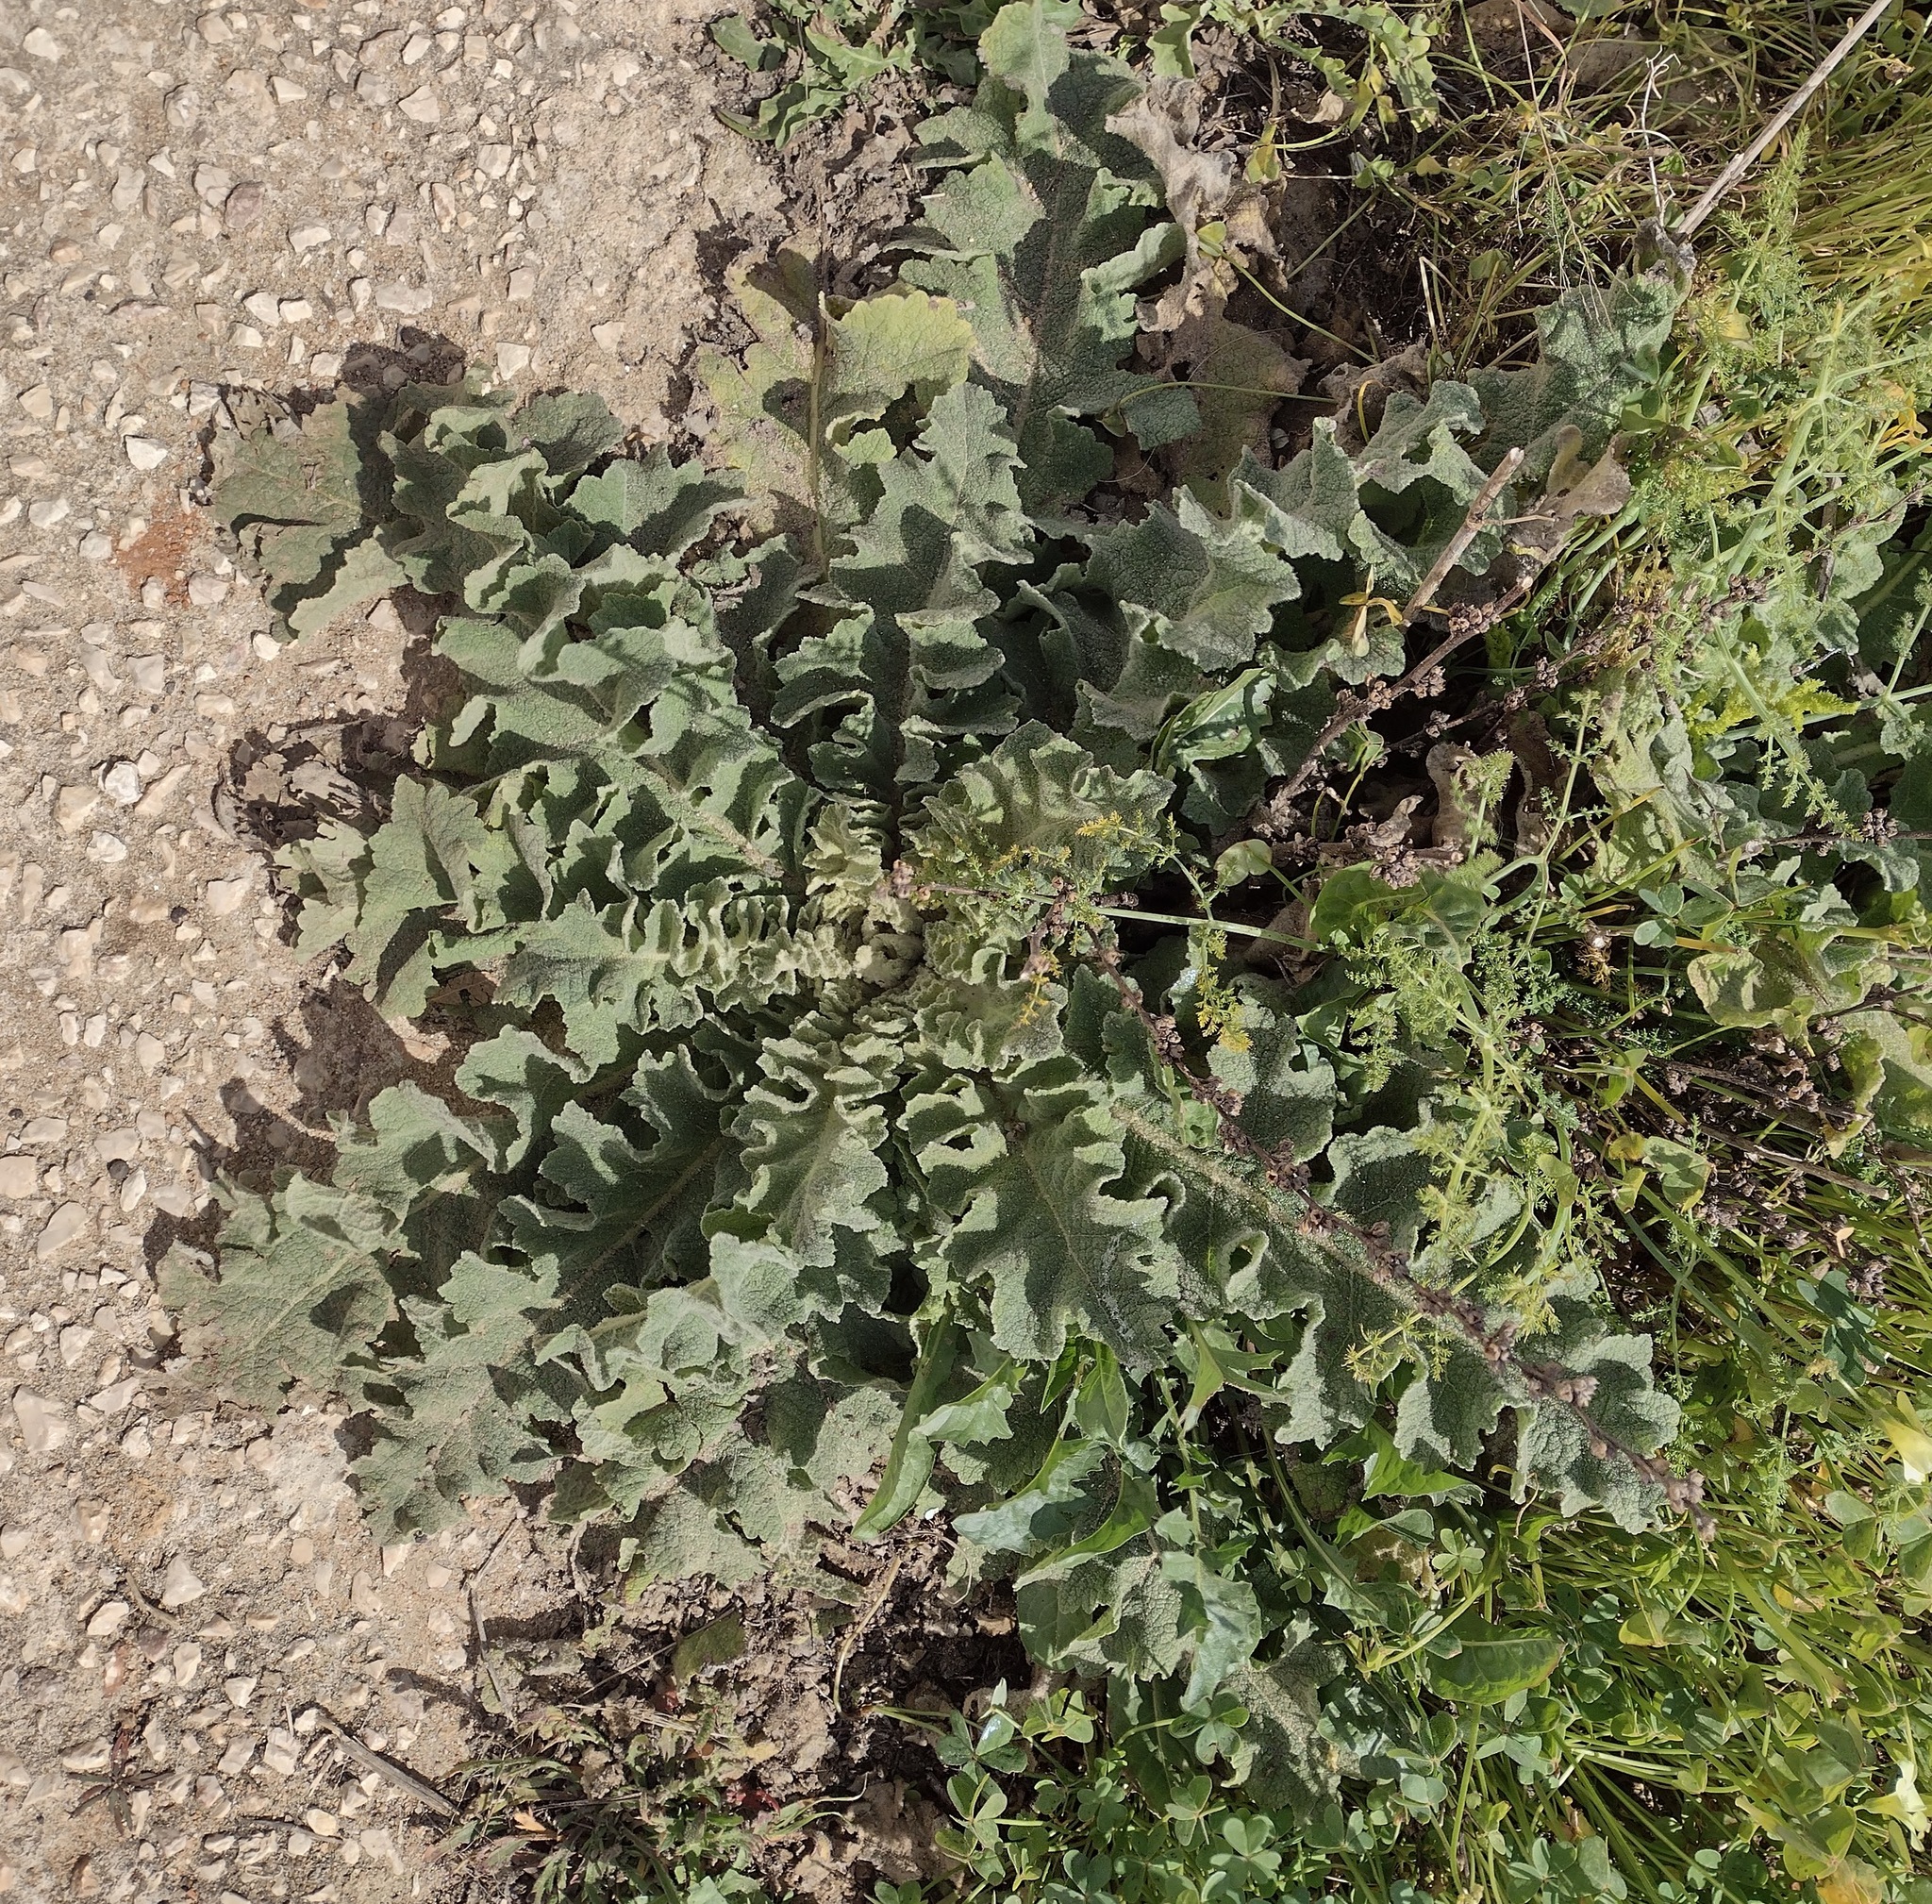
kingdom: Plantae
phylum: Tracheophyta
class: Magnoliopsida
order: Lamiales
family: Scrophulariaceae
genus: Verbascum
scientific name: Verbascum sinuatum
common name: Wavyleaf mullein
